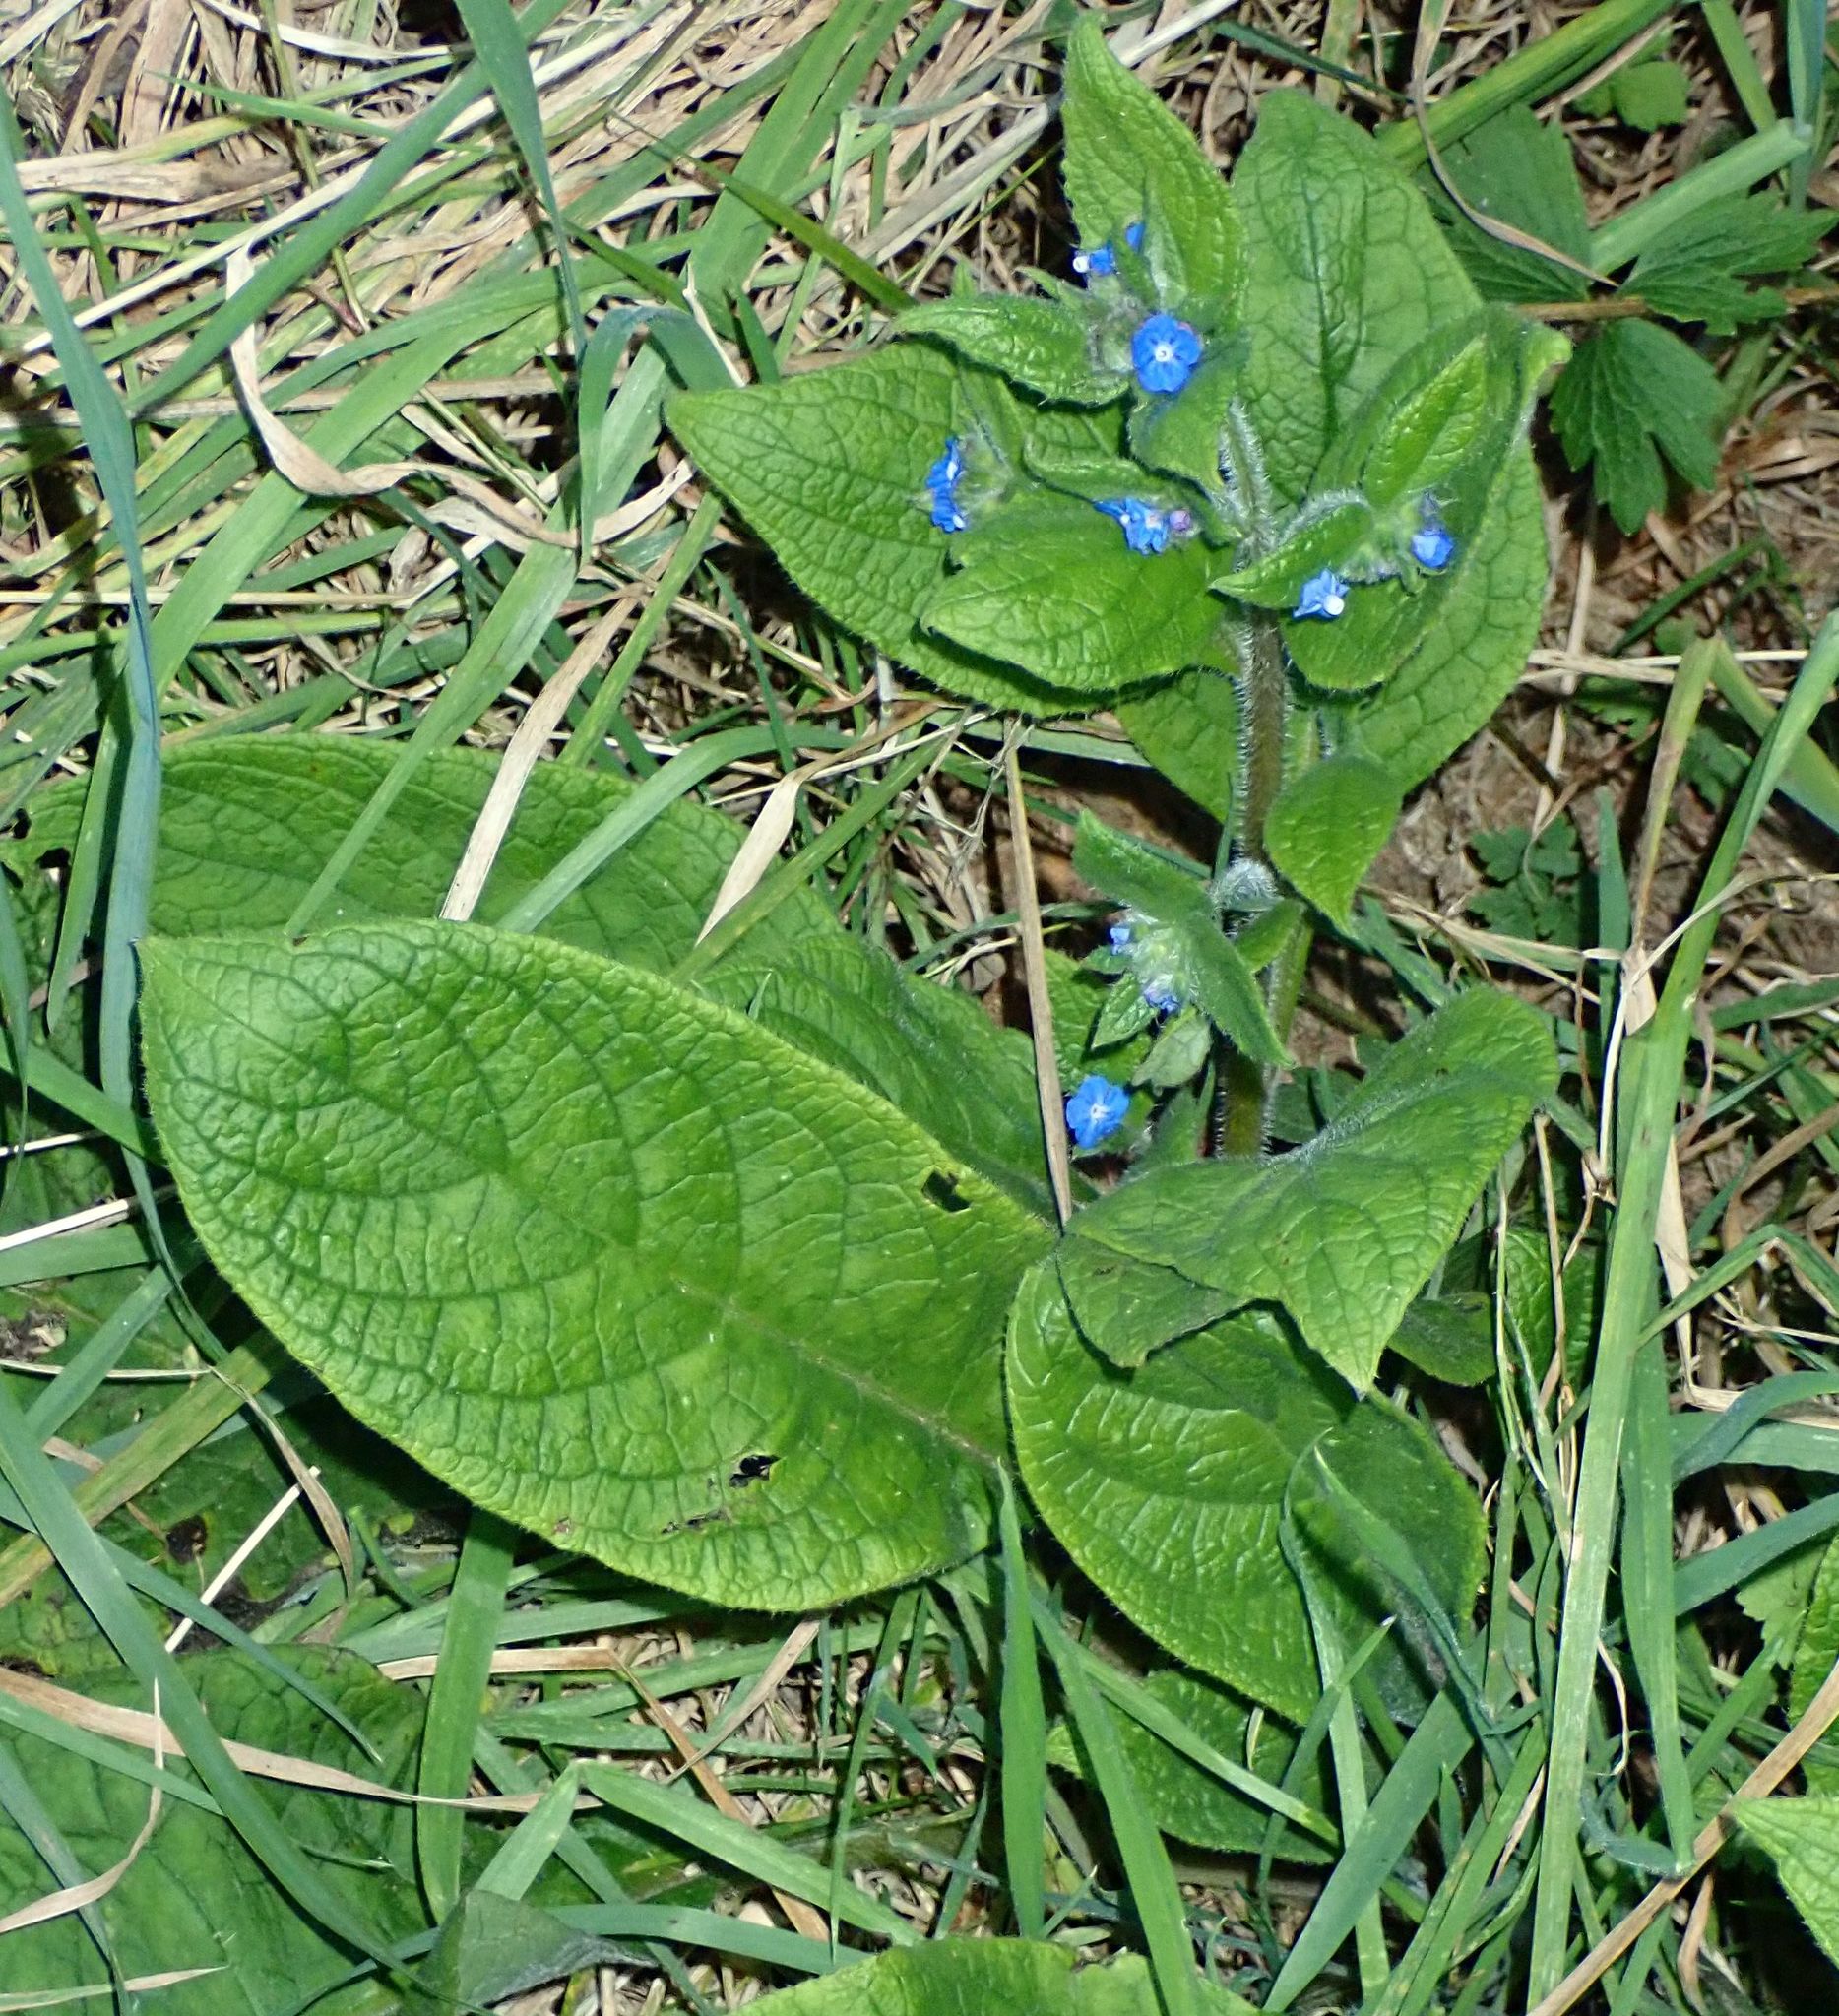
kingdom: Plantae
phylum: Tracheophyta
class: Magnoliopsida
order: Boraginales
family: Boraginaceae
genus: Pentaglottis
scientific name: Pentaglottis sempervirens
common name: Green alkanet
